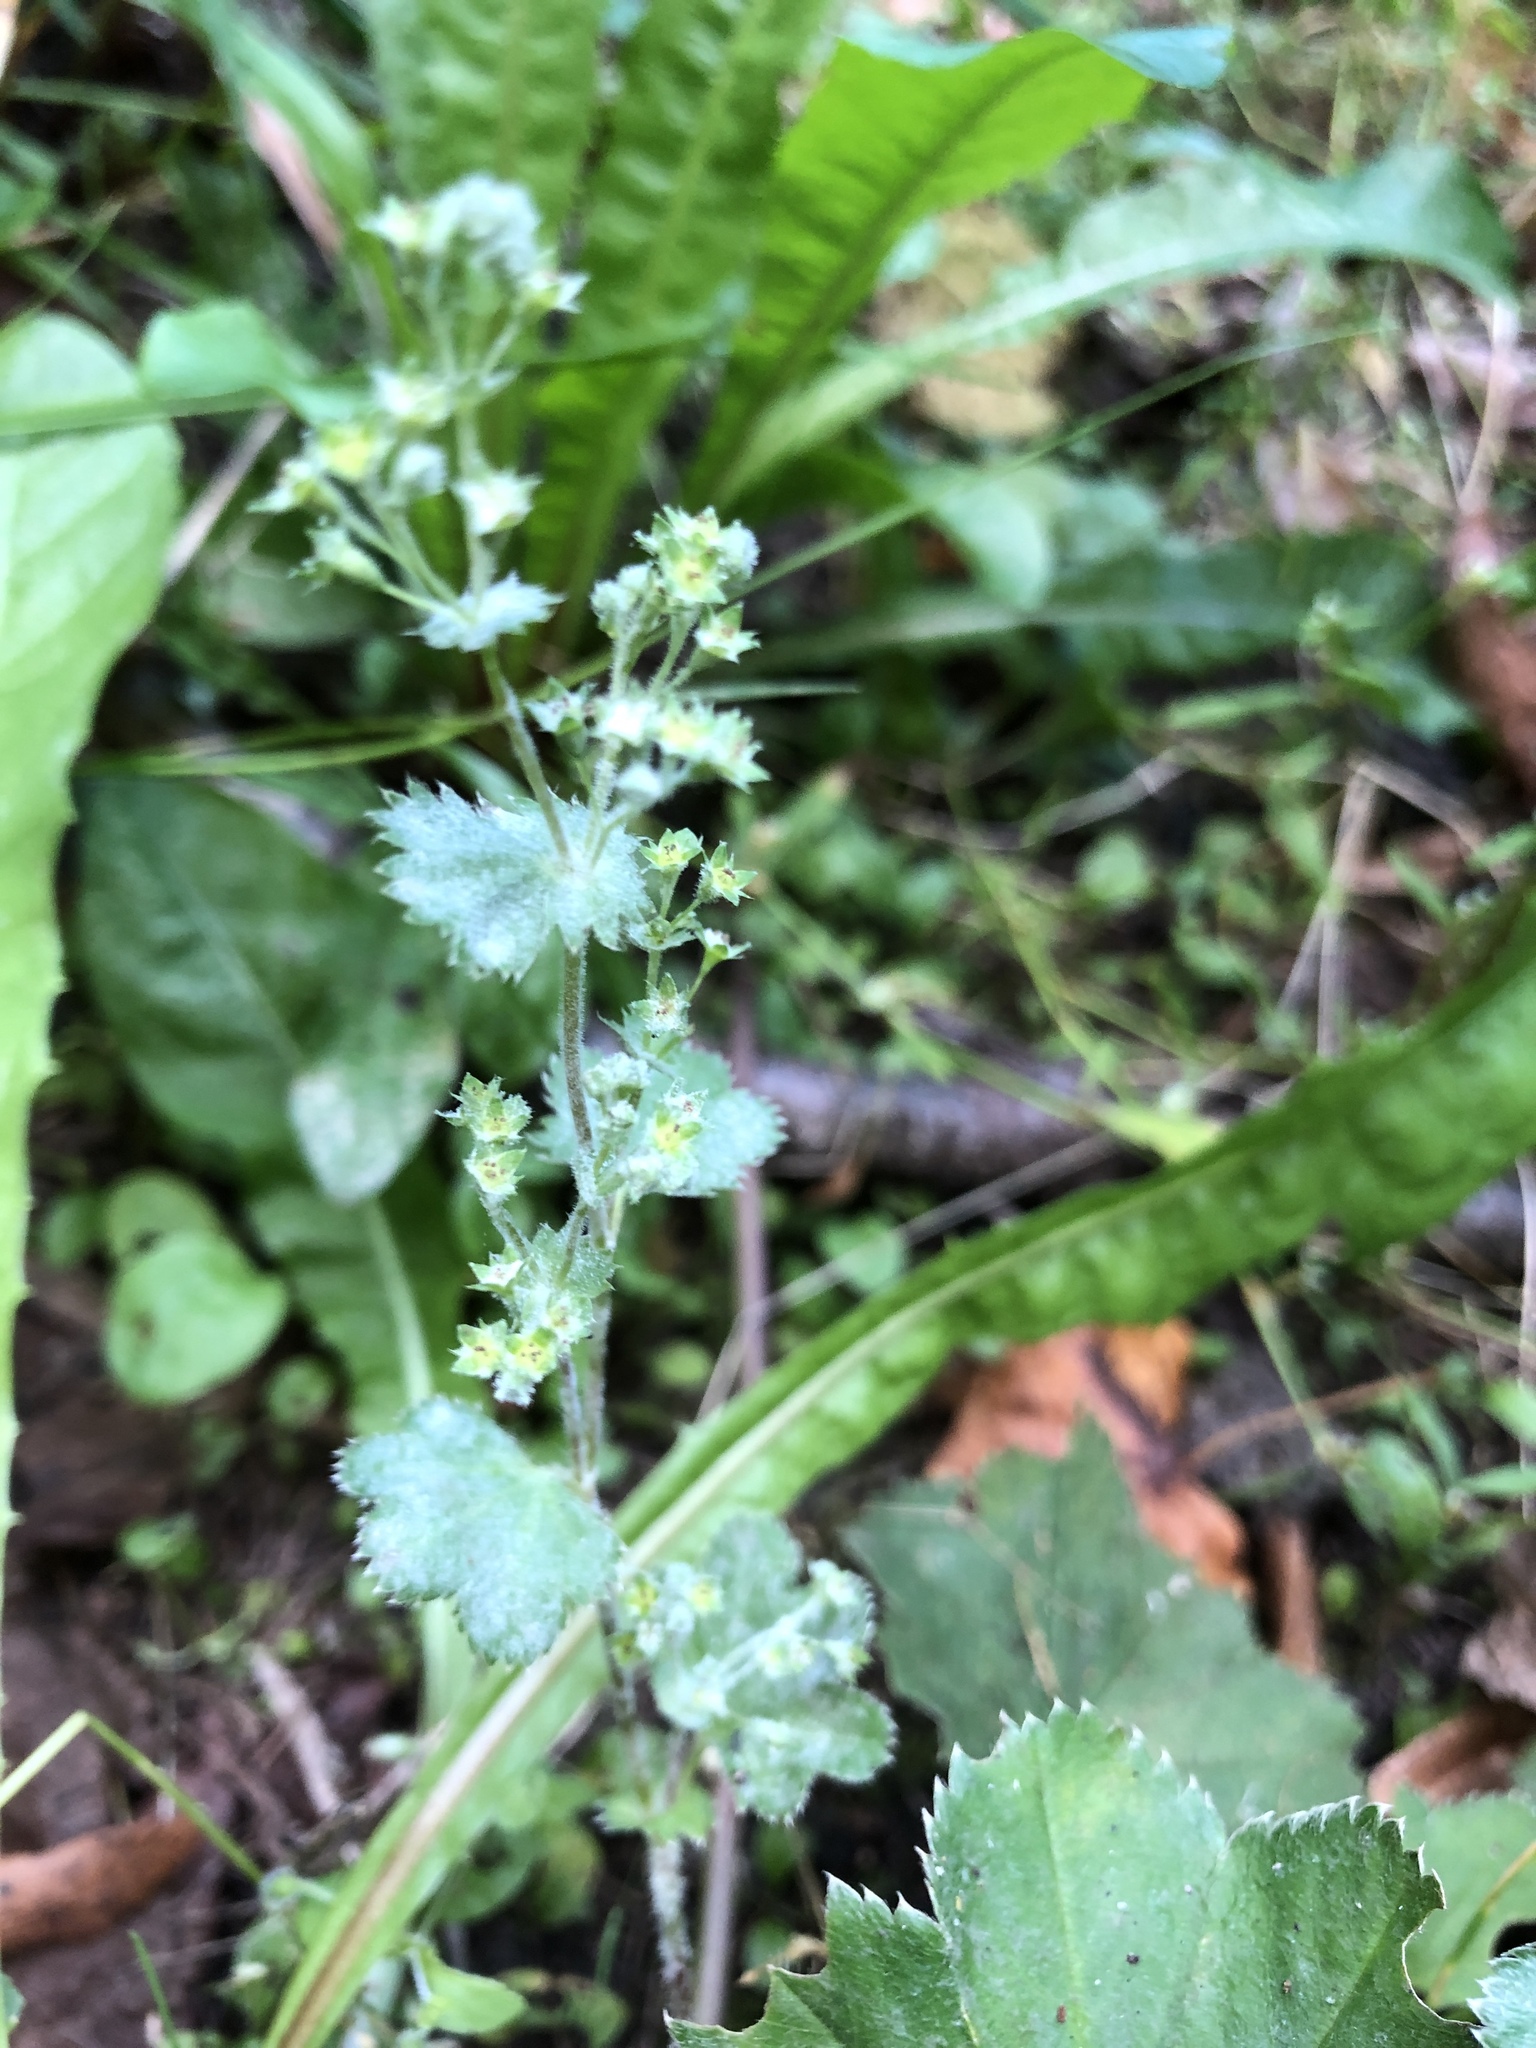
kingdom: Plantae
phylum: Tracheophyta
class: Magnoliopsida
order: Rosales
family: Rosaceae
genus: Alchemilla
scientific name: Alchemilla micans
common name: Gleaming lady's mantle
